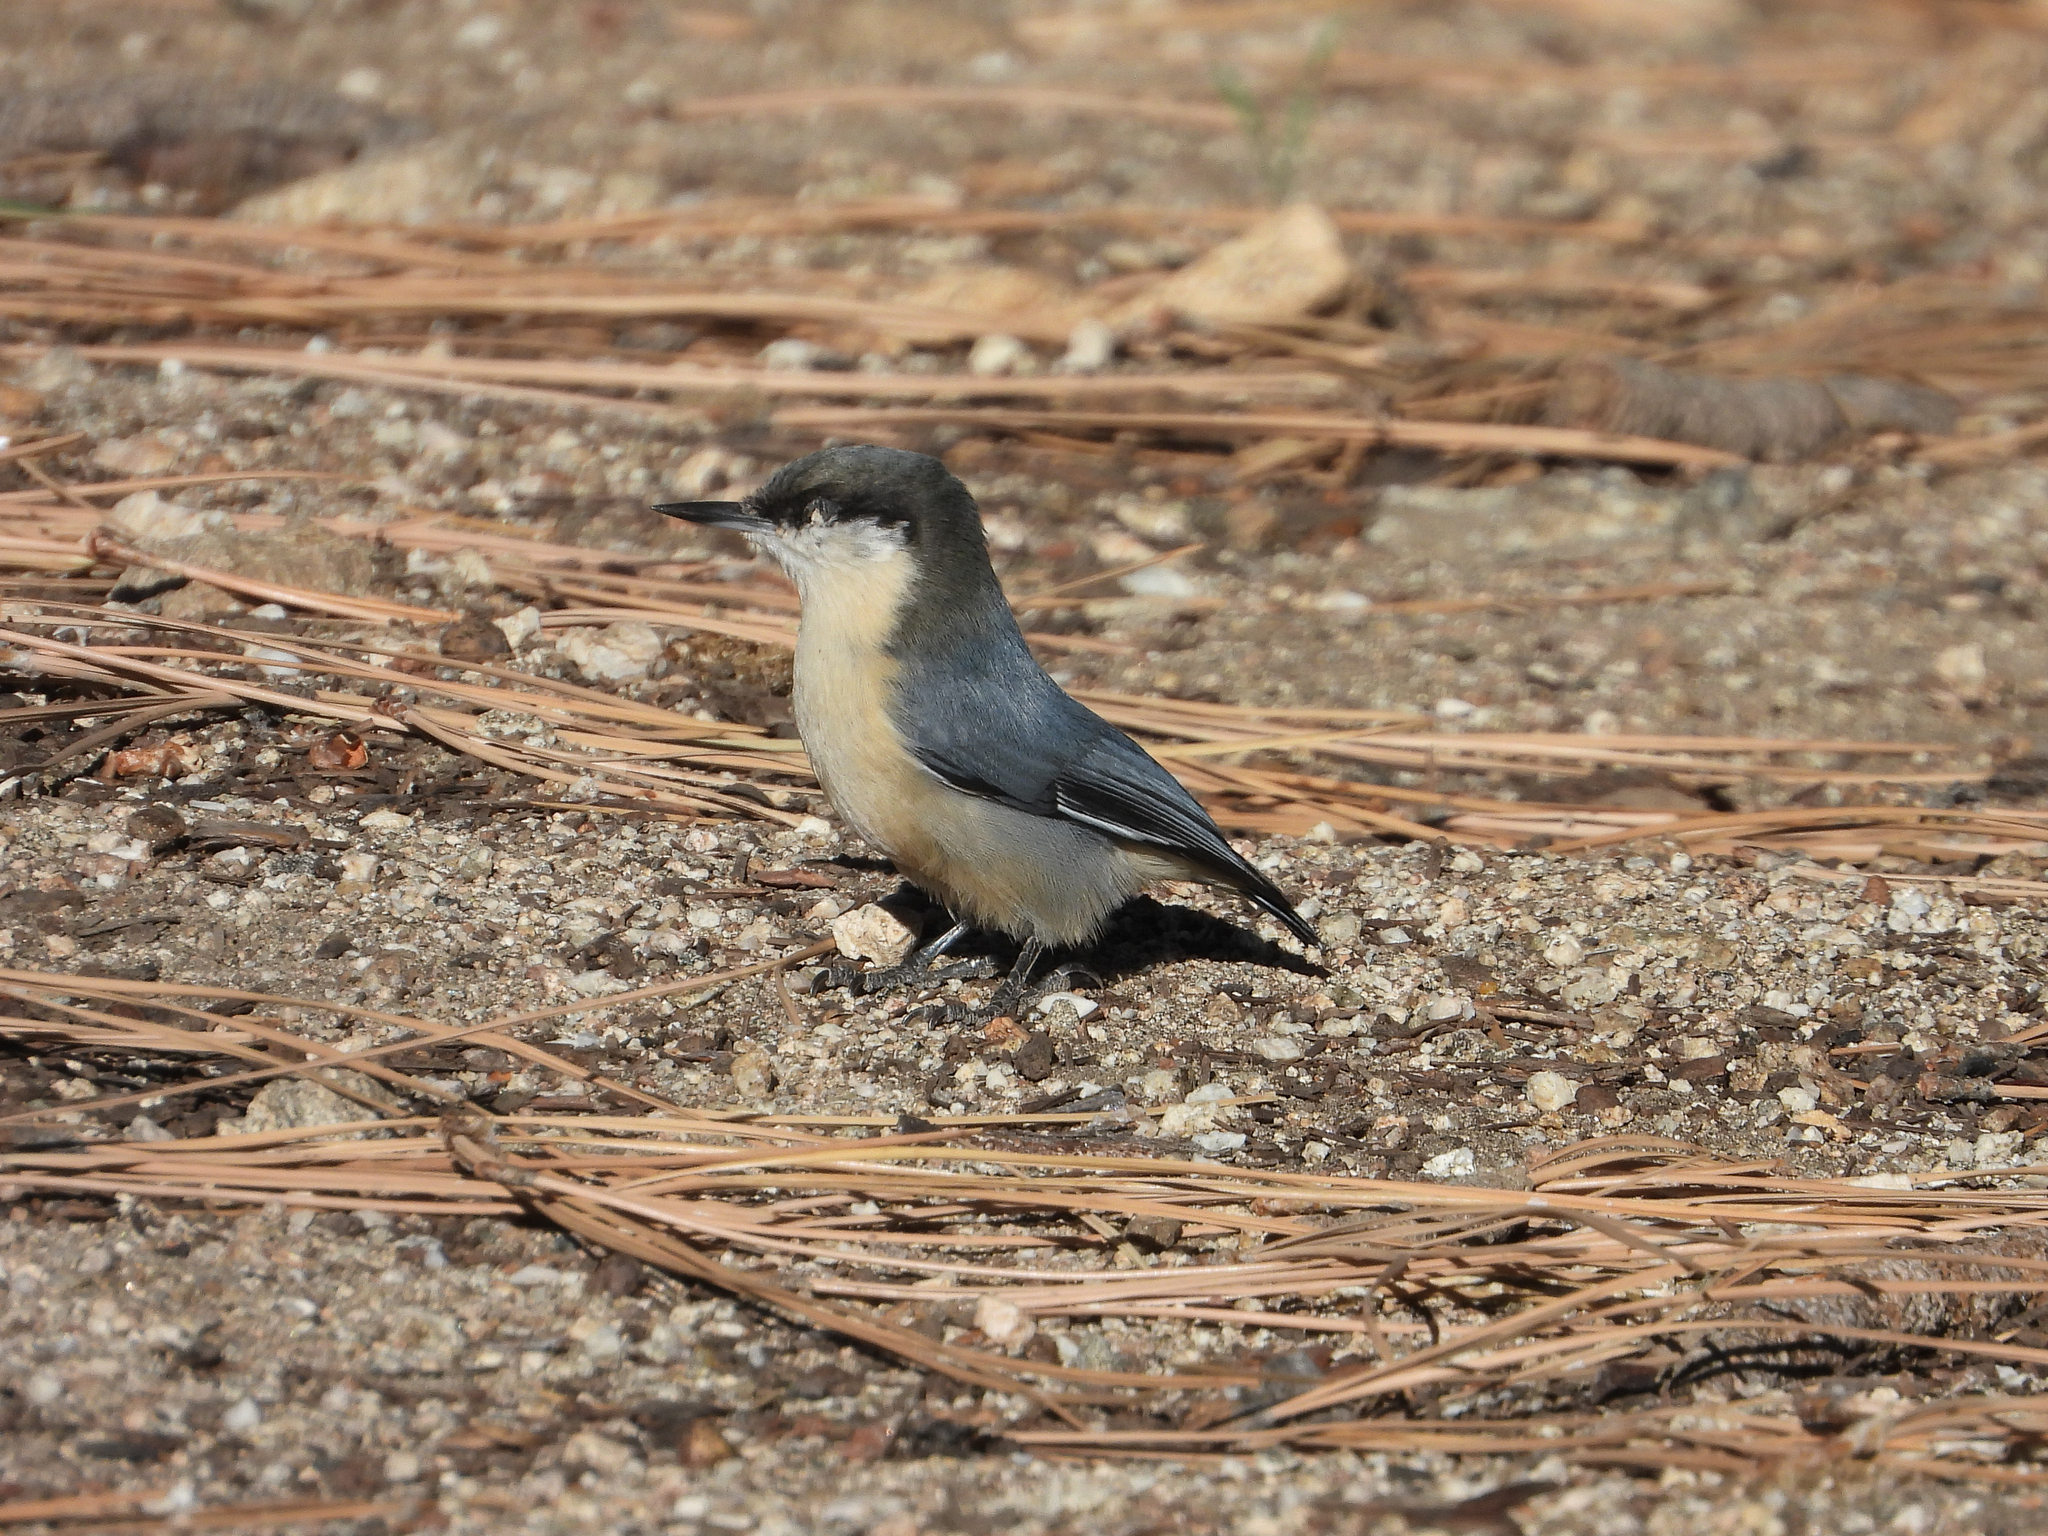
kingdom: Animalia
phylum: Chordata
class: Aves
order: Passeriformes
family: Sittidae
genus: Sitta
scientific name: Sitta pygmaea
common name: Pygmy nuthatch
